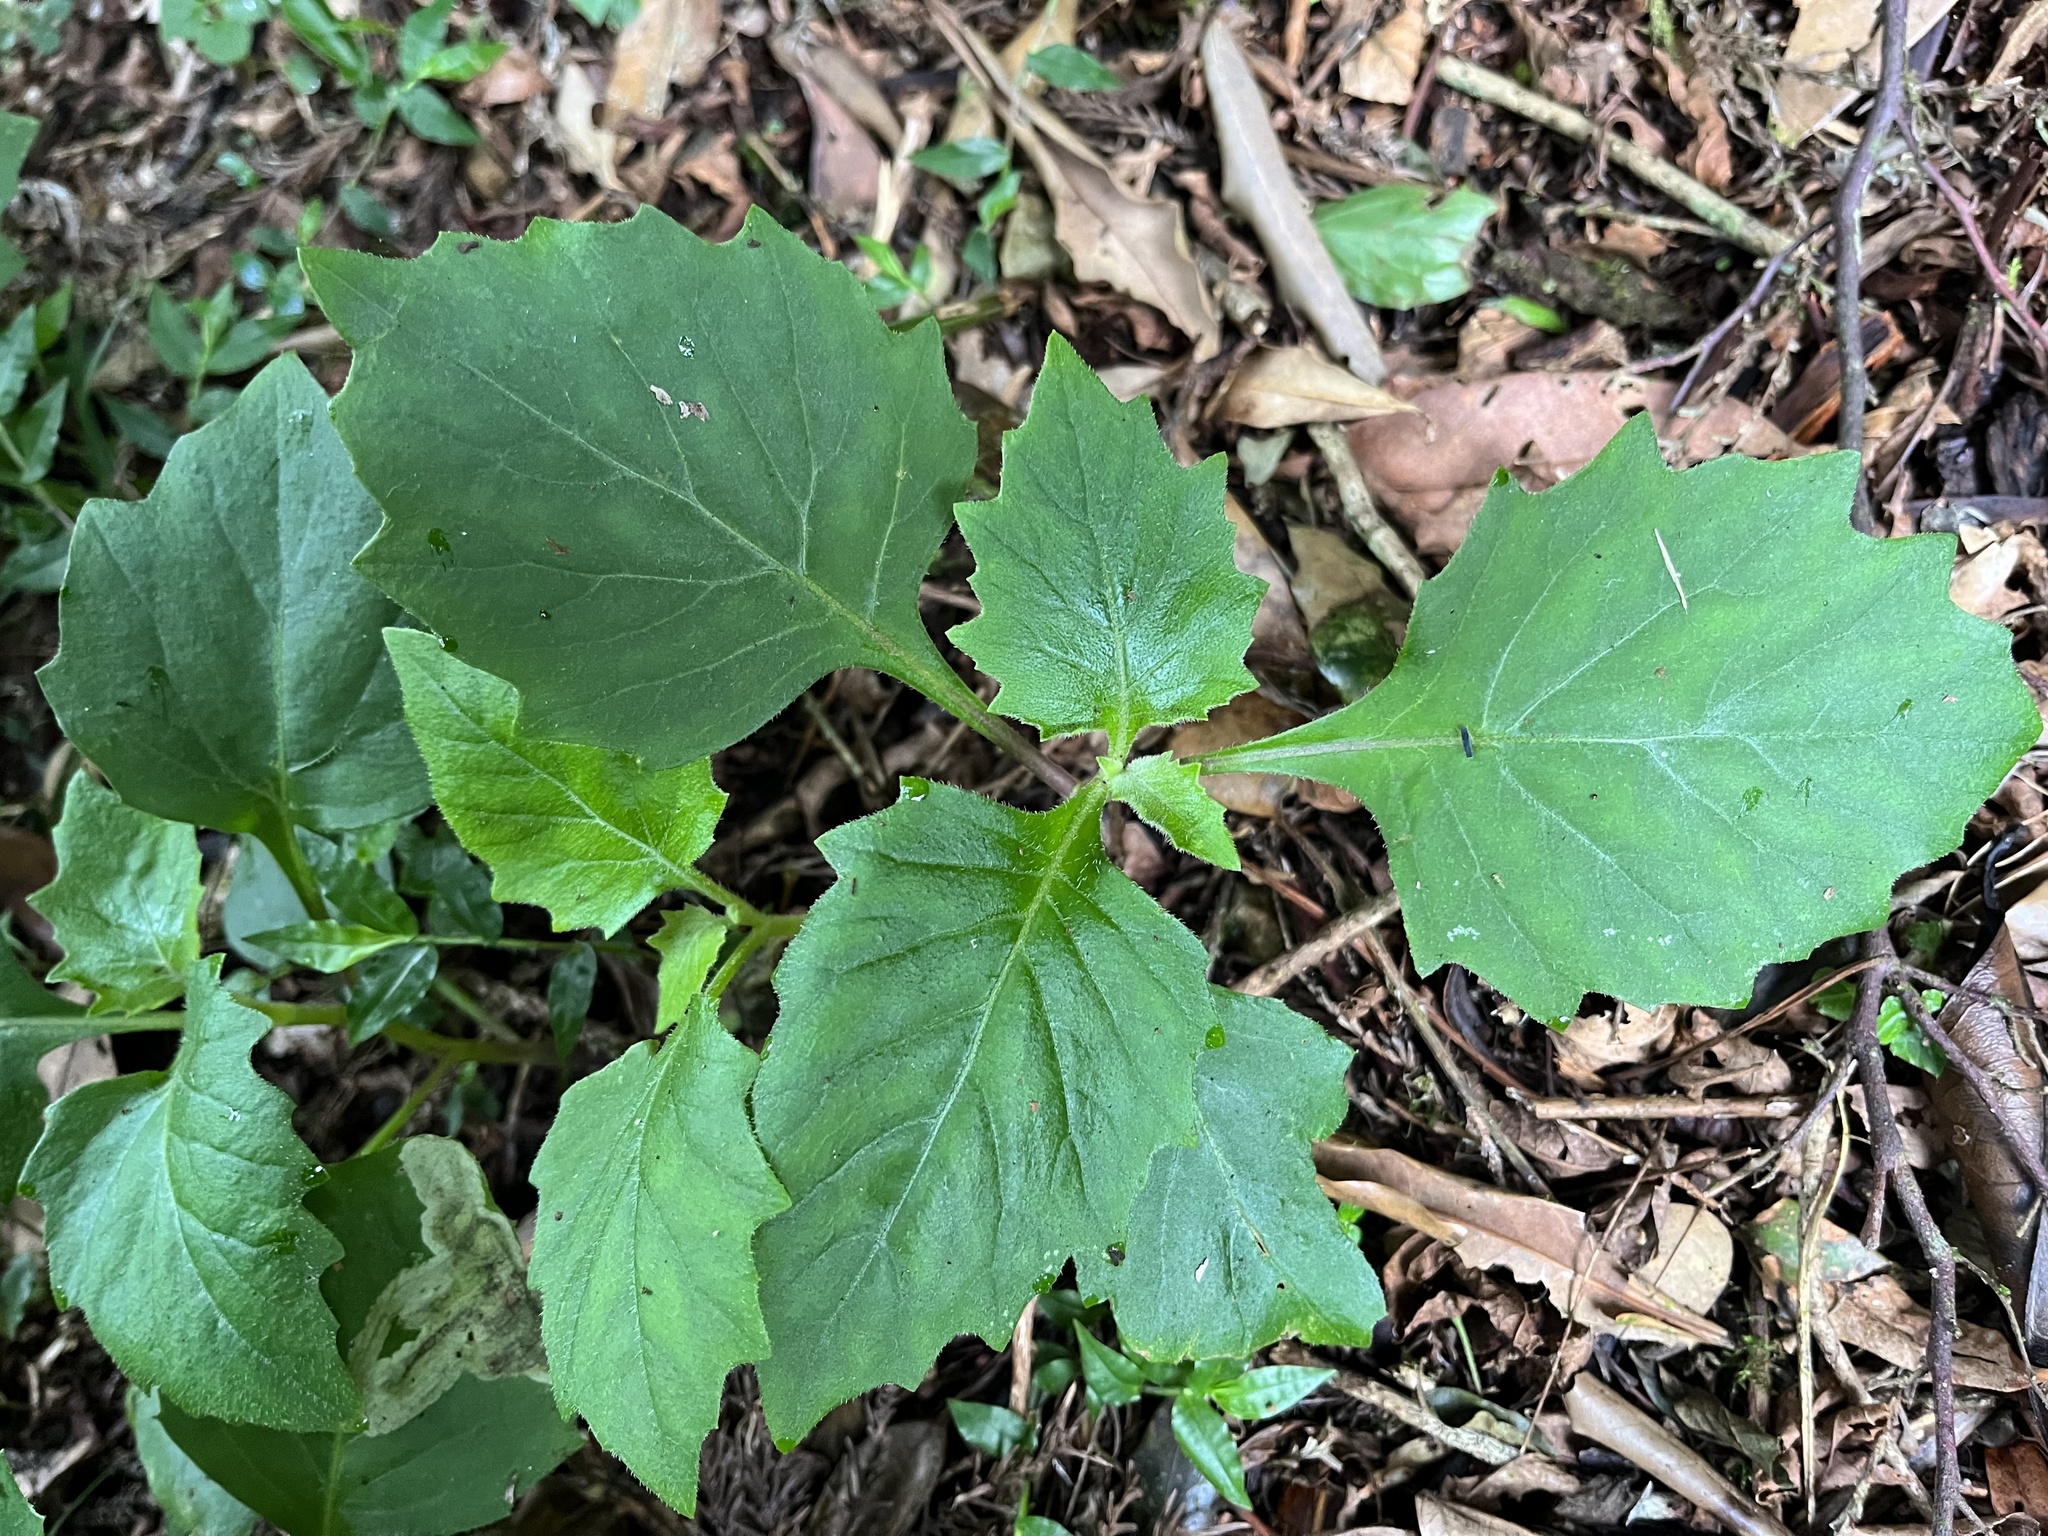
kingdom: Plantae
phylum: Tracheophyta
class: Magnoliopsida
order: Asterales
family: Asteraceae
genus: Gynura
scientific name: Gynura japonica
